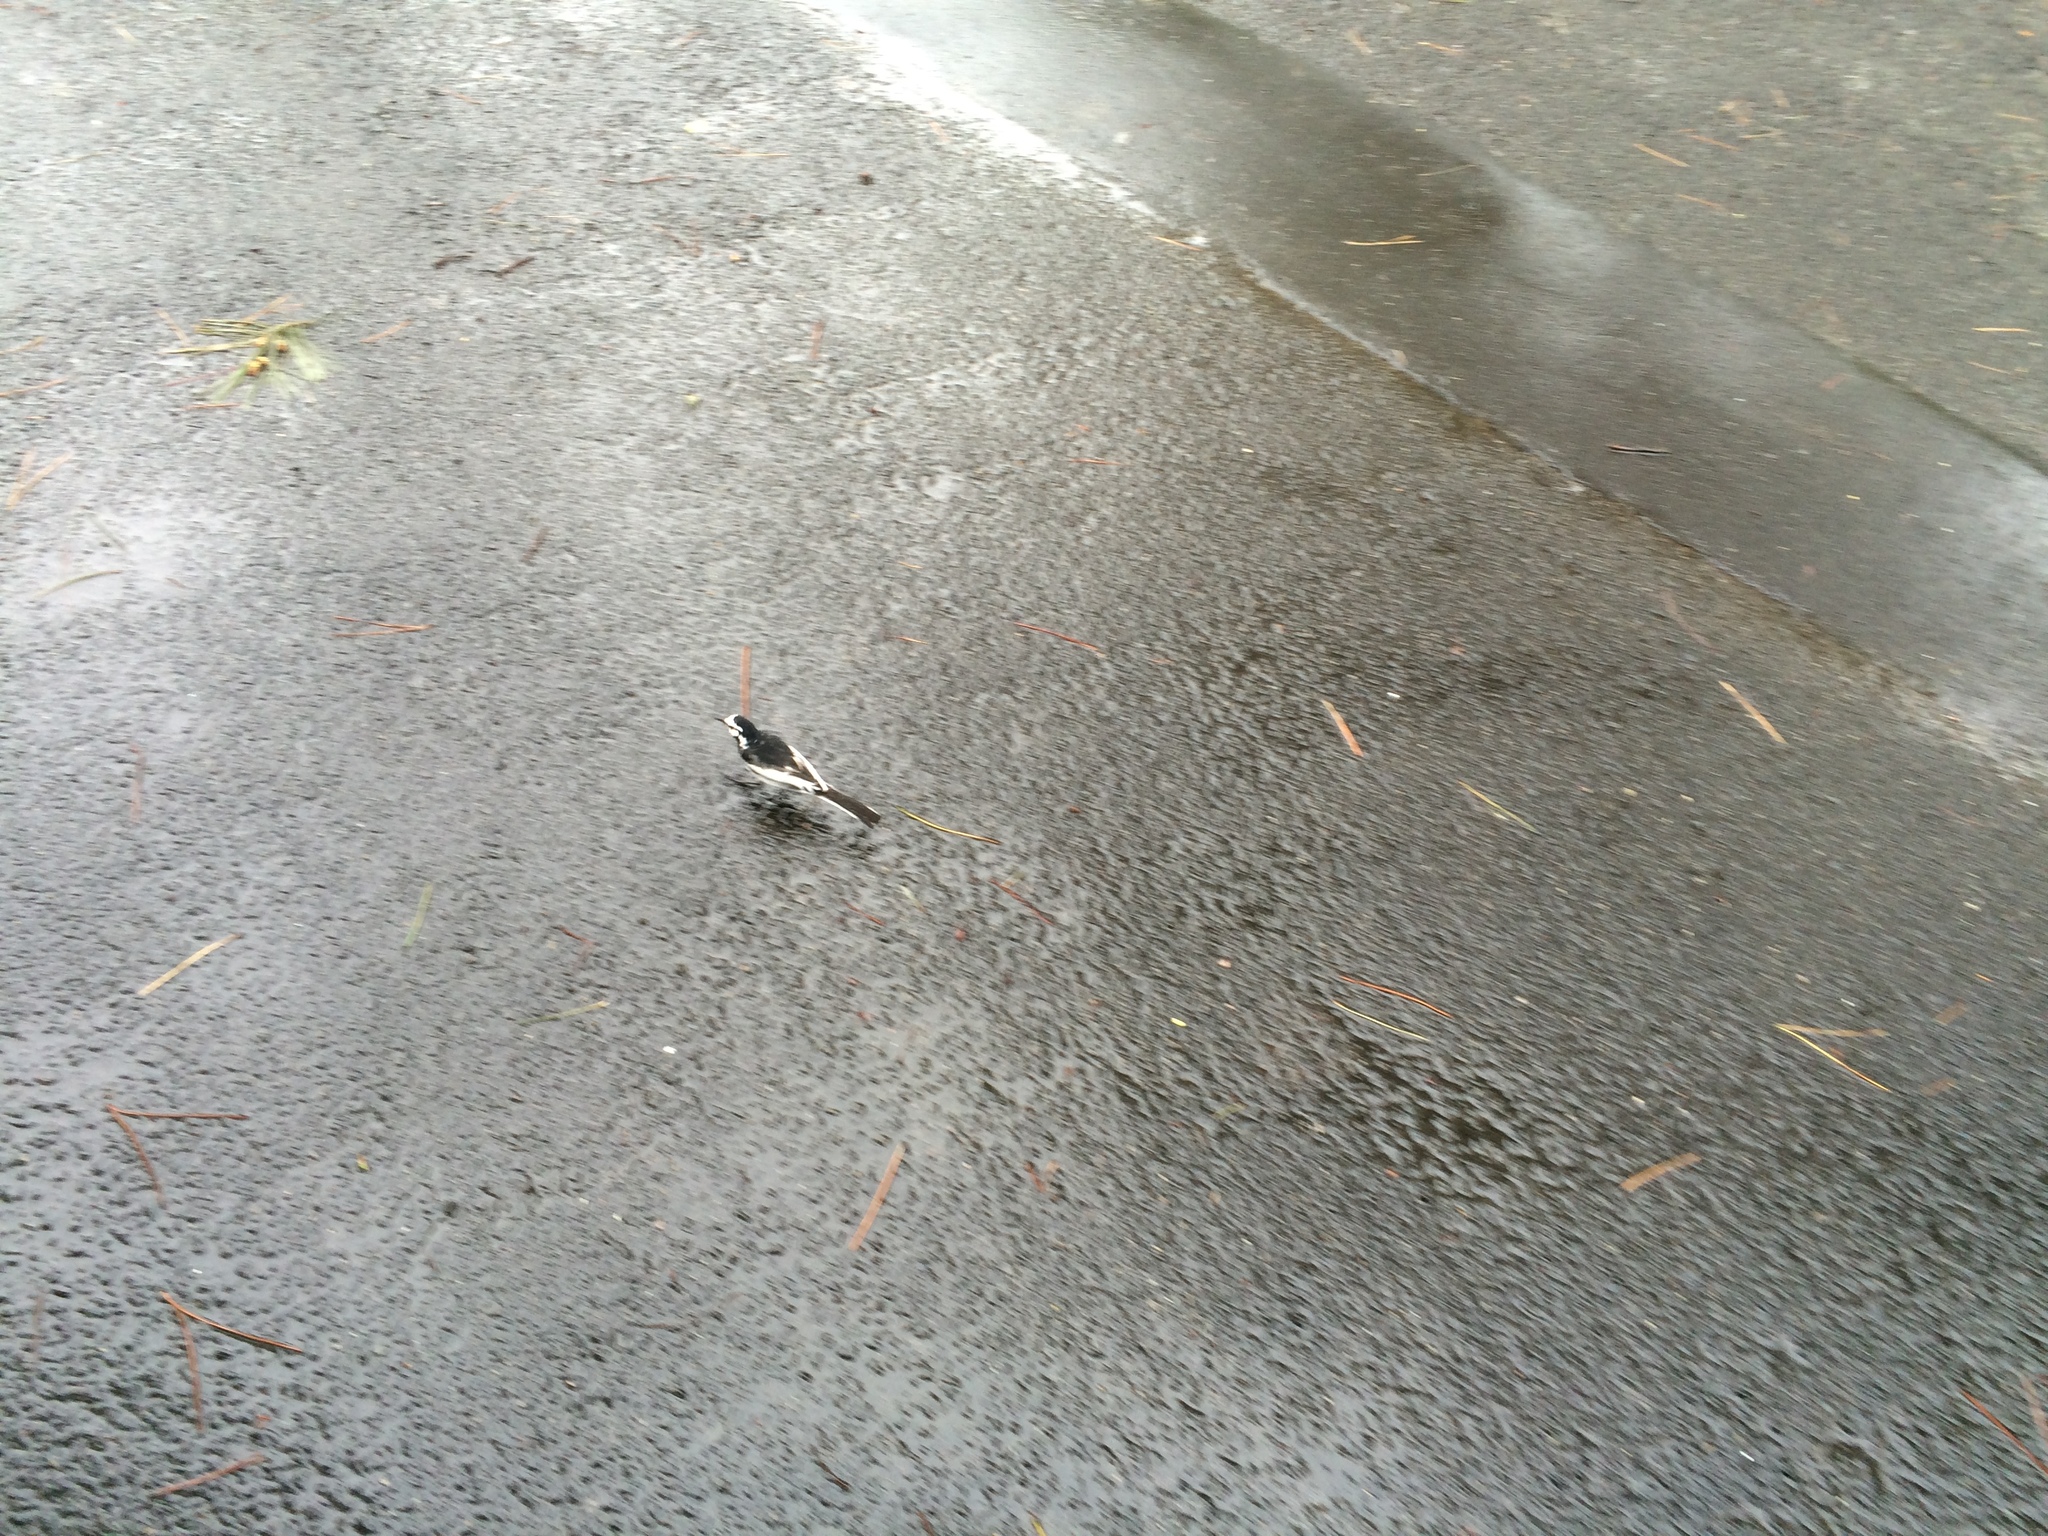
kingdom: Animalia
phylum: Chordata
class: Aves
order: Passeriformes
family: Motacillidae
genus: Motacilla
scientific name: Motacilla alba
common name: White wagtail
